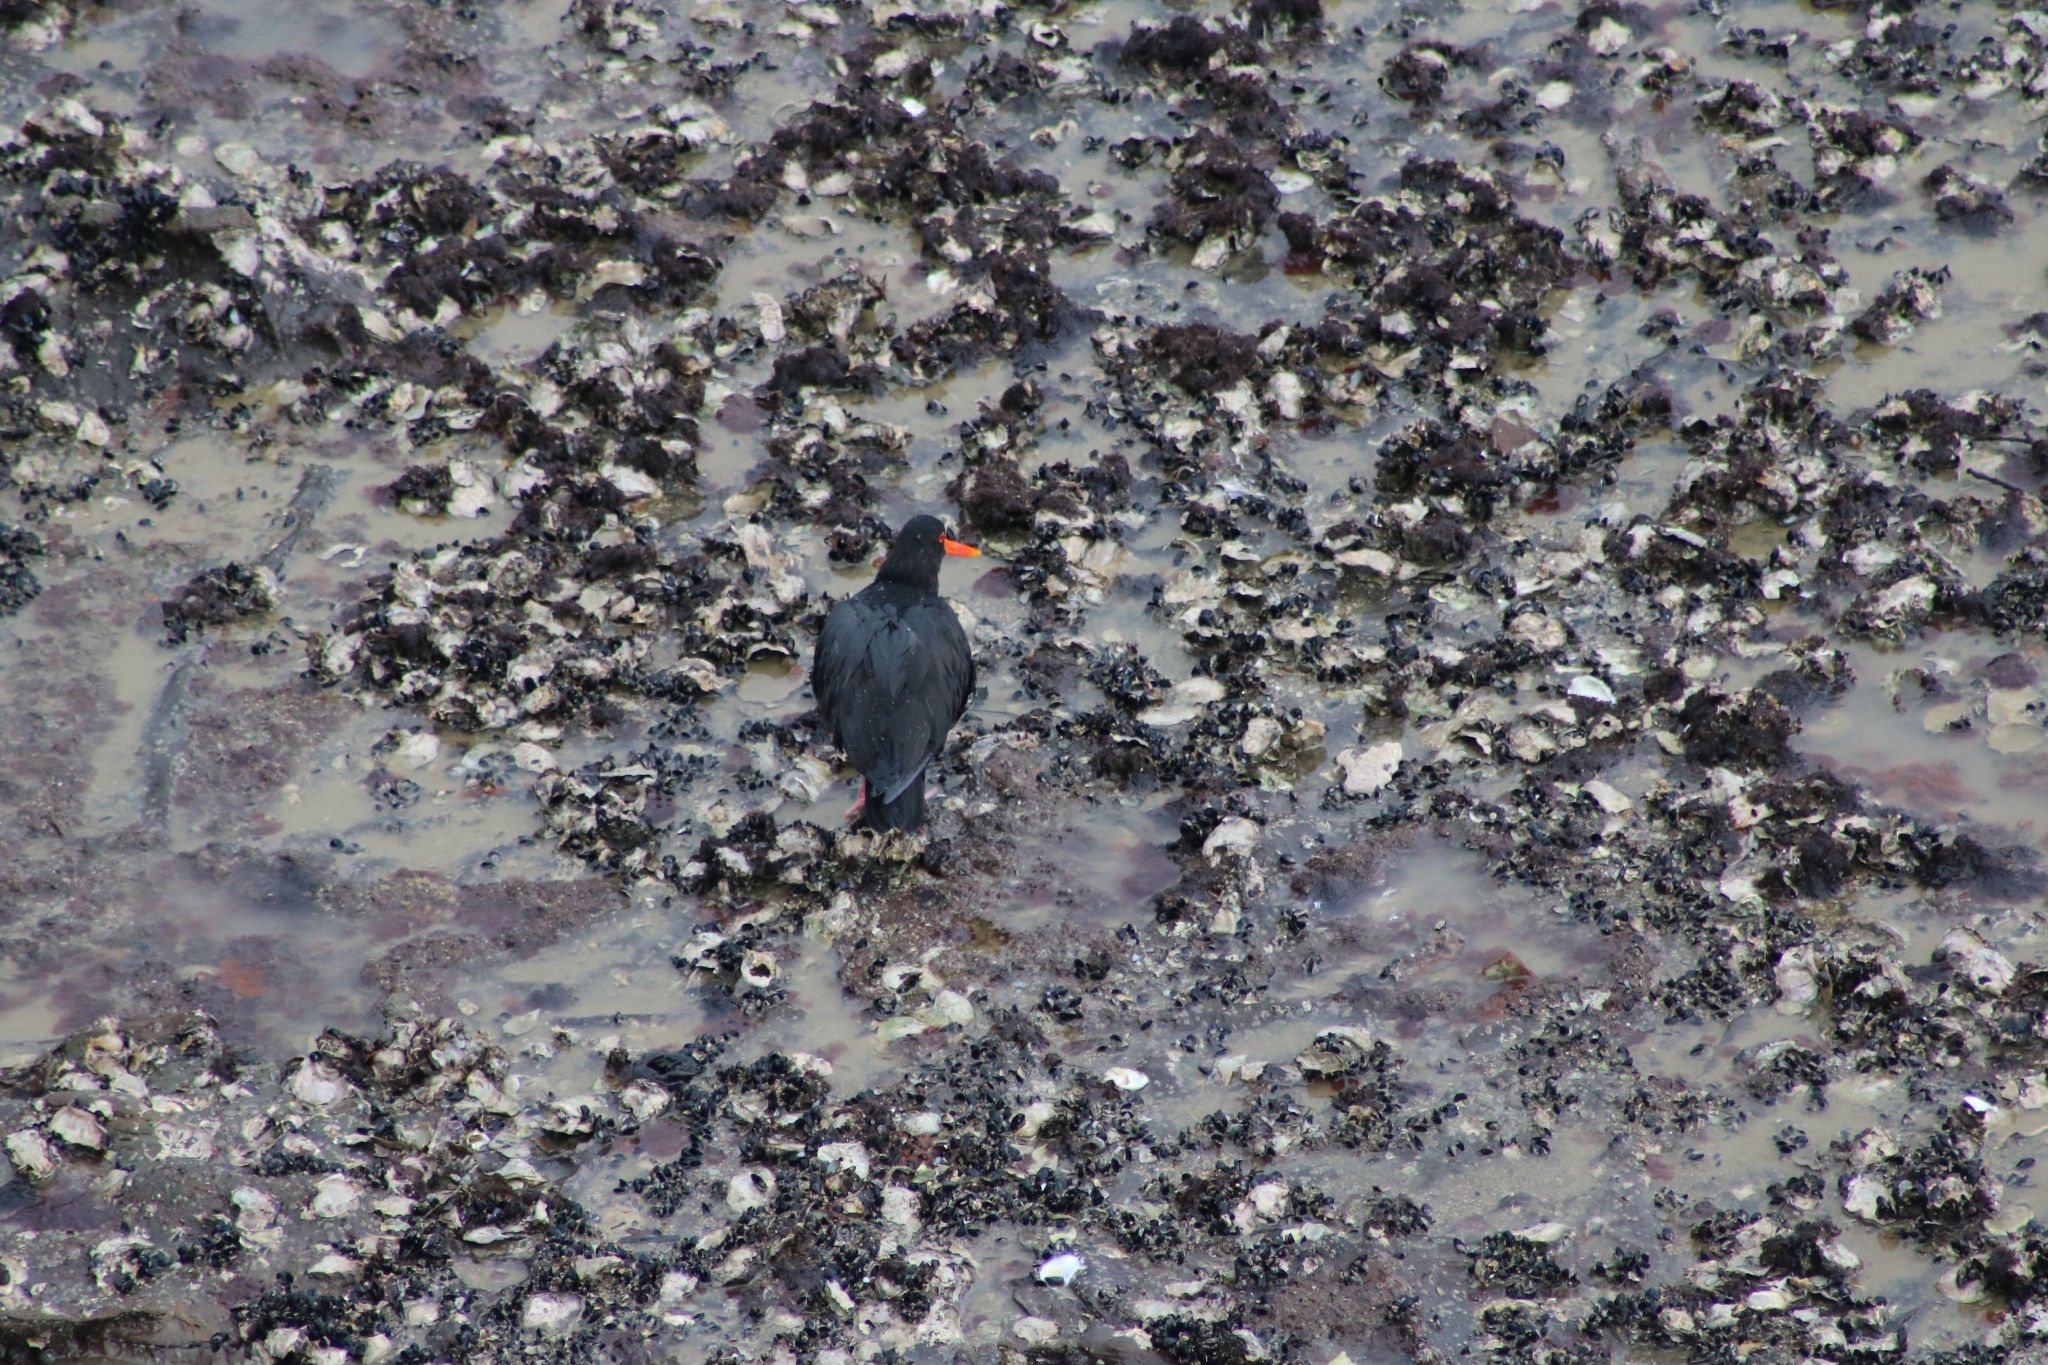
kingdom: Animalia
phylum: Chordata
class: Aves
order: Charadriiformes
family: Haematopodidae
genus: Haematopus
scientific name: Haematopus unicolor
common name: Variable oystercatcher
